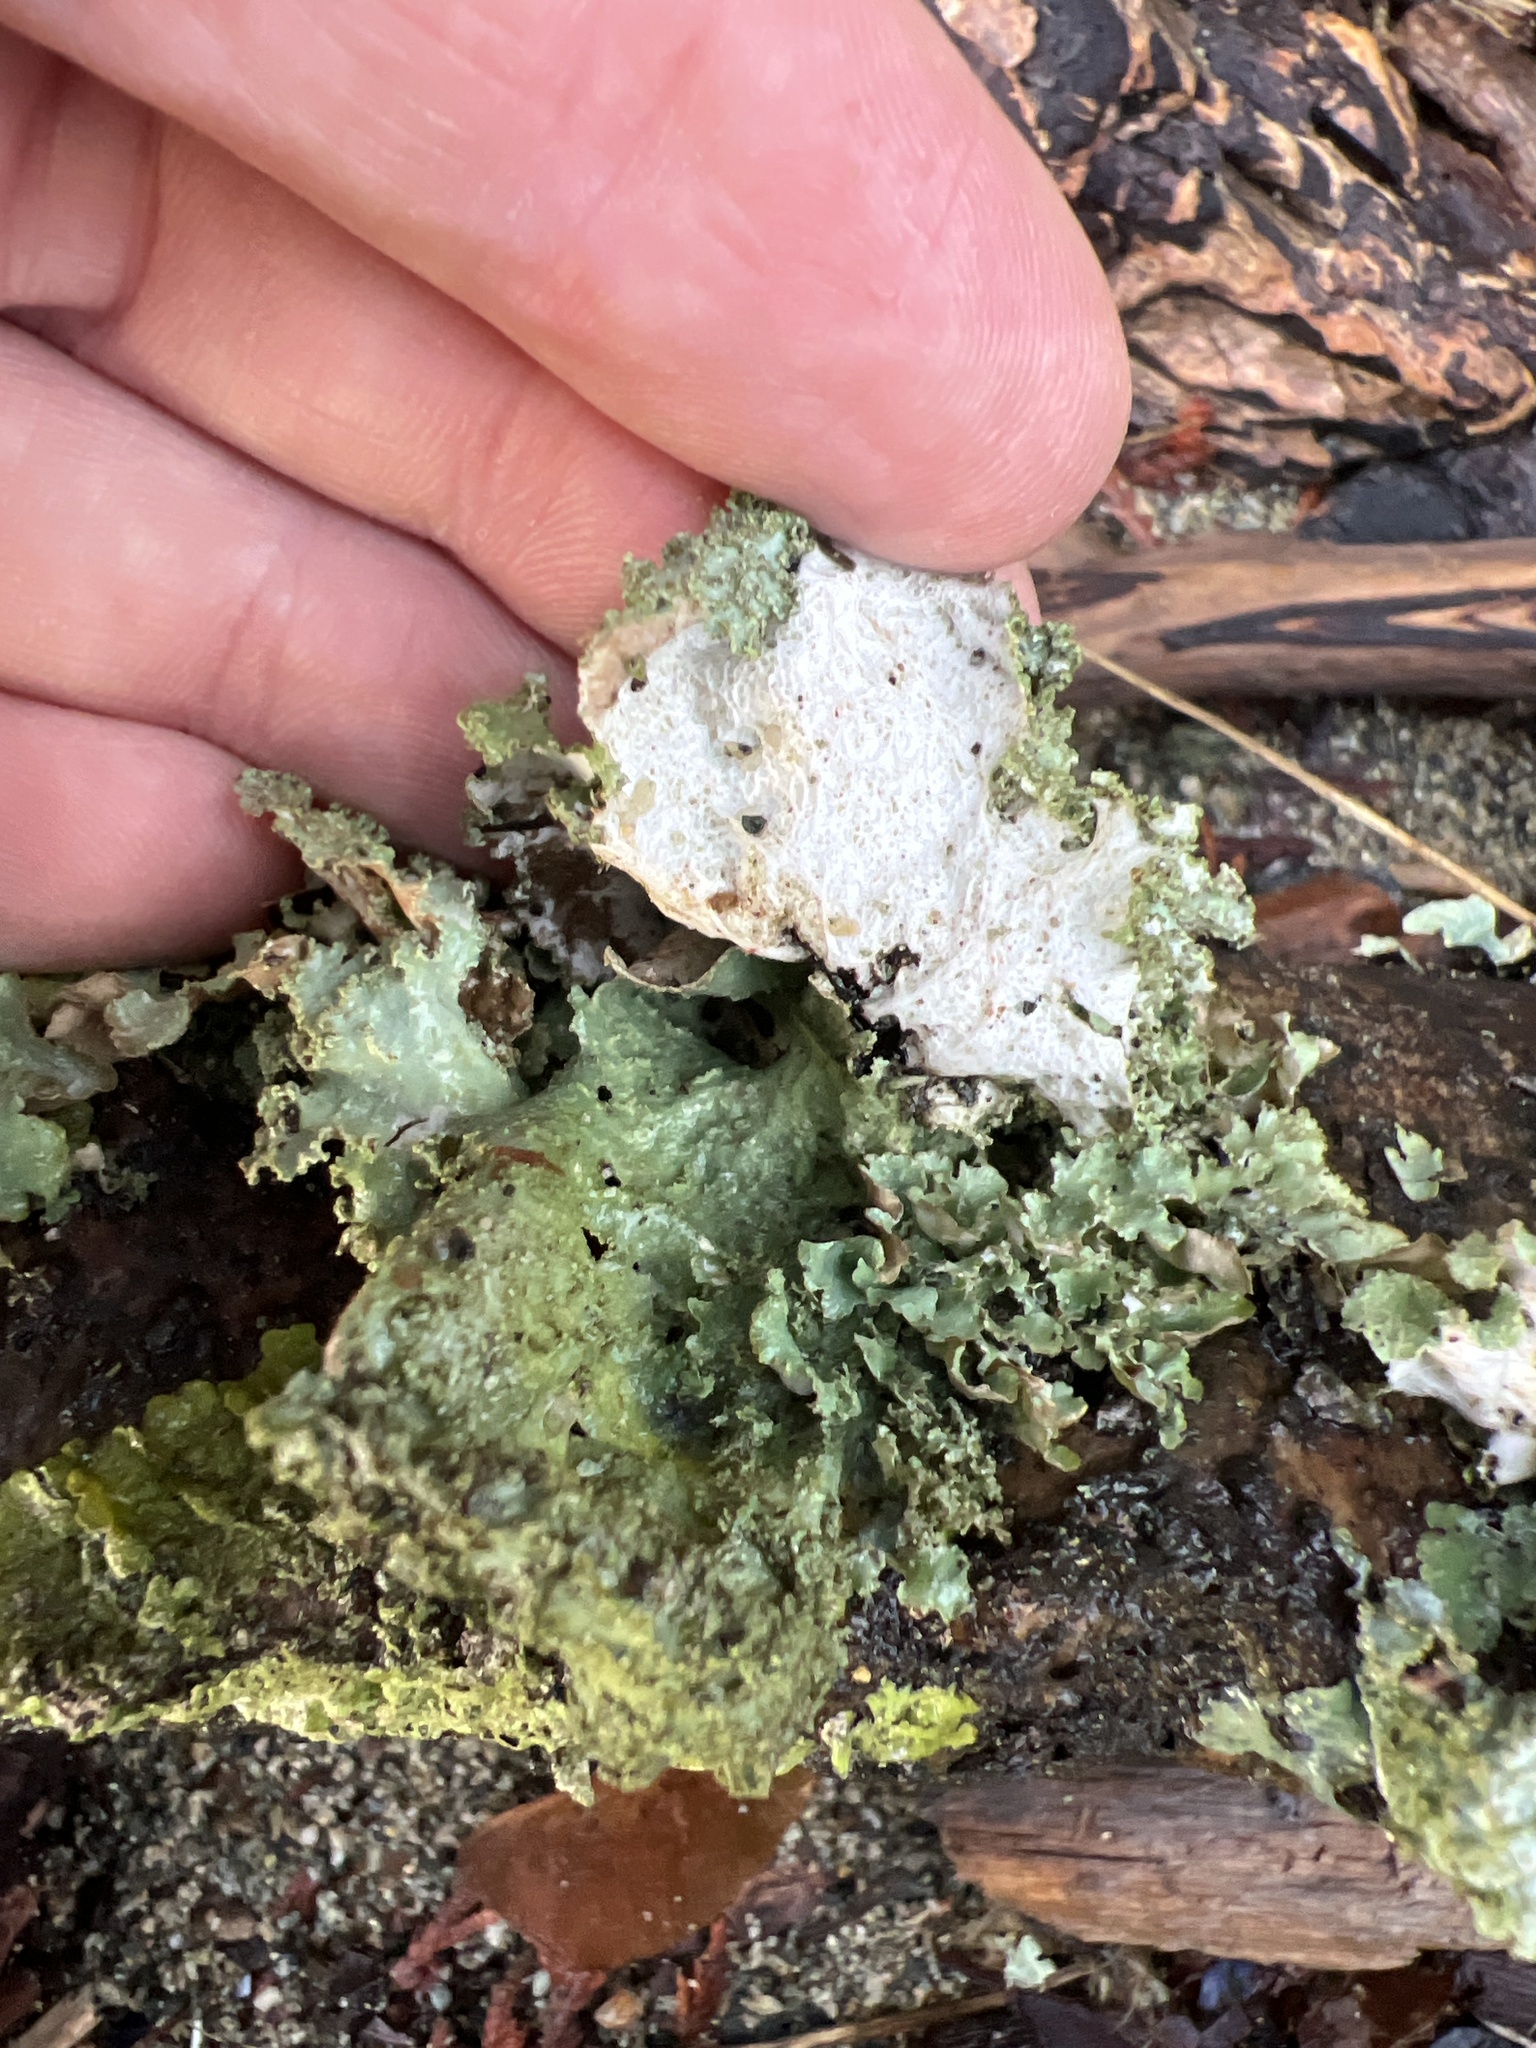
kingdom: Fungi
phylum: Ascomycota
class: Lecanoromycetes
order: Lecanorales
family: Parmeliaceae
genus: Platismatia
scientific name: Platismatia glauca
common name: Varied rag lichen
